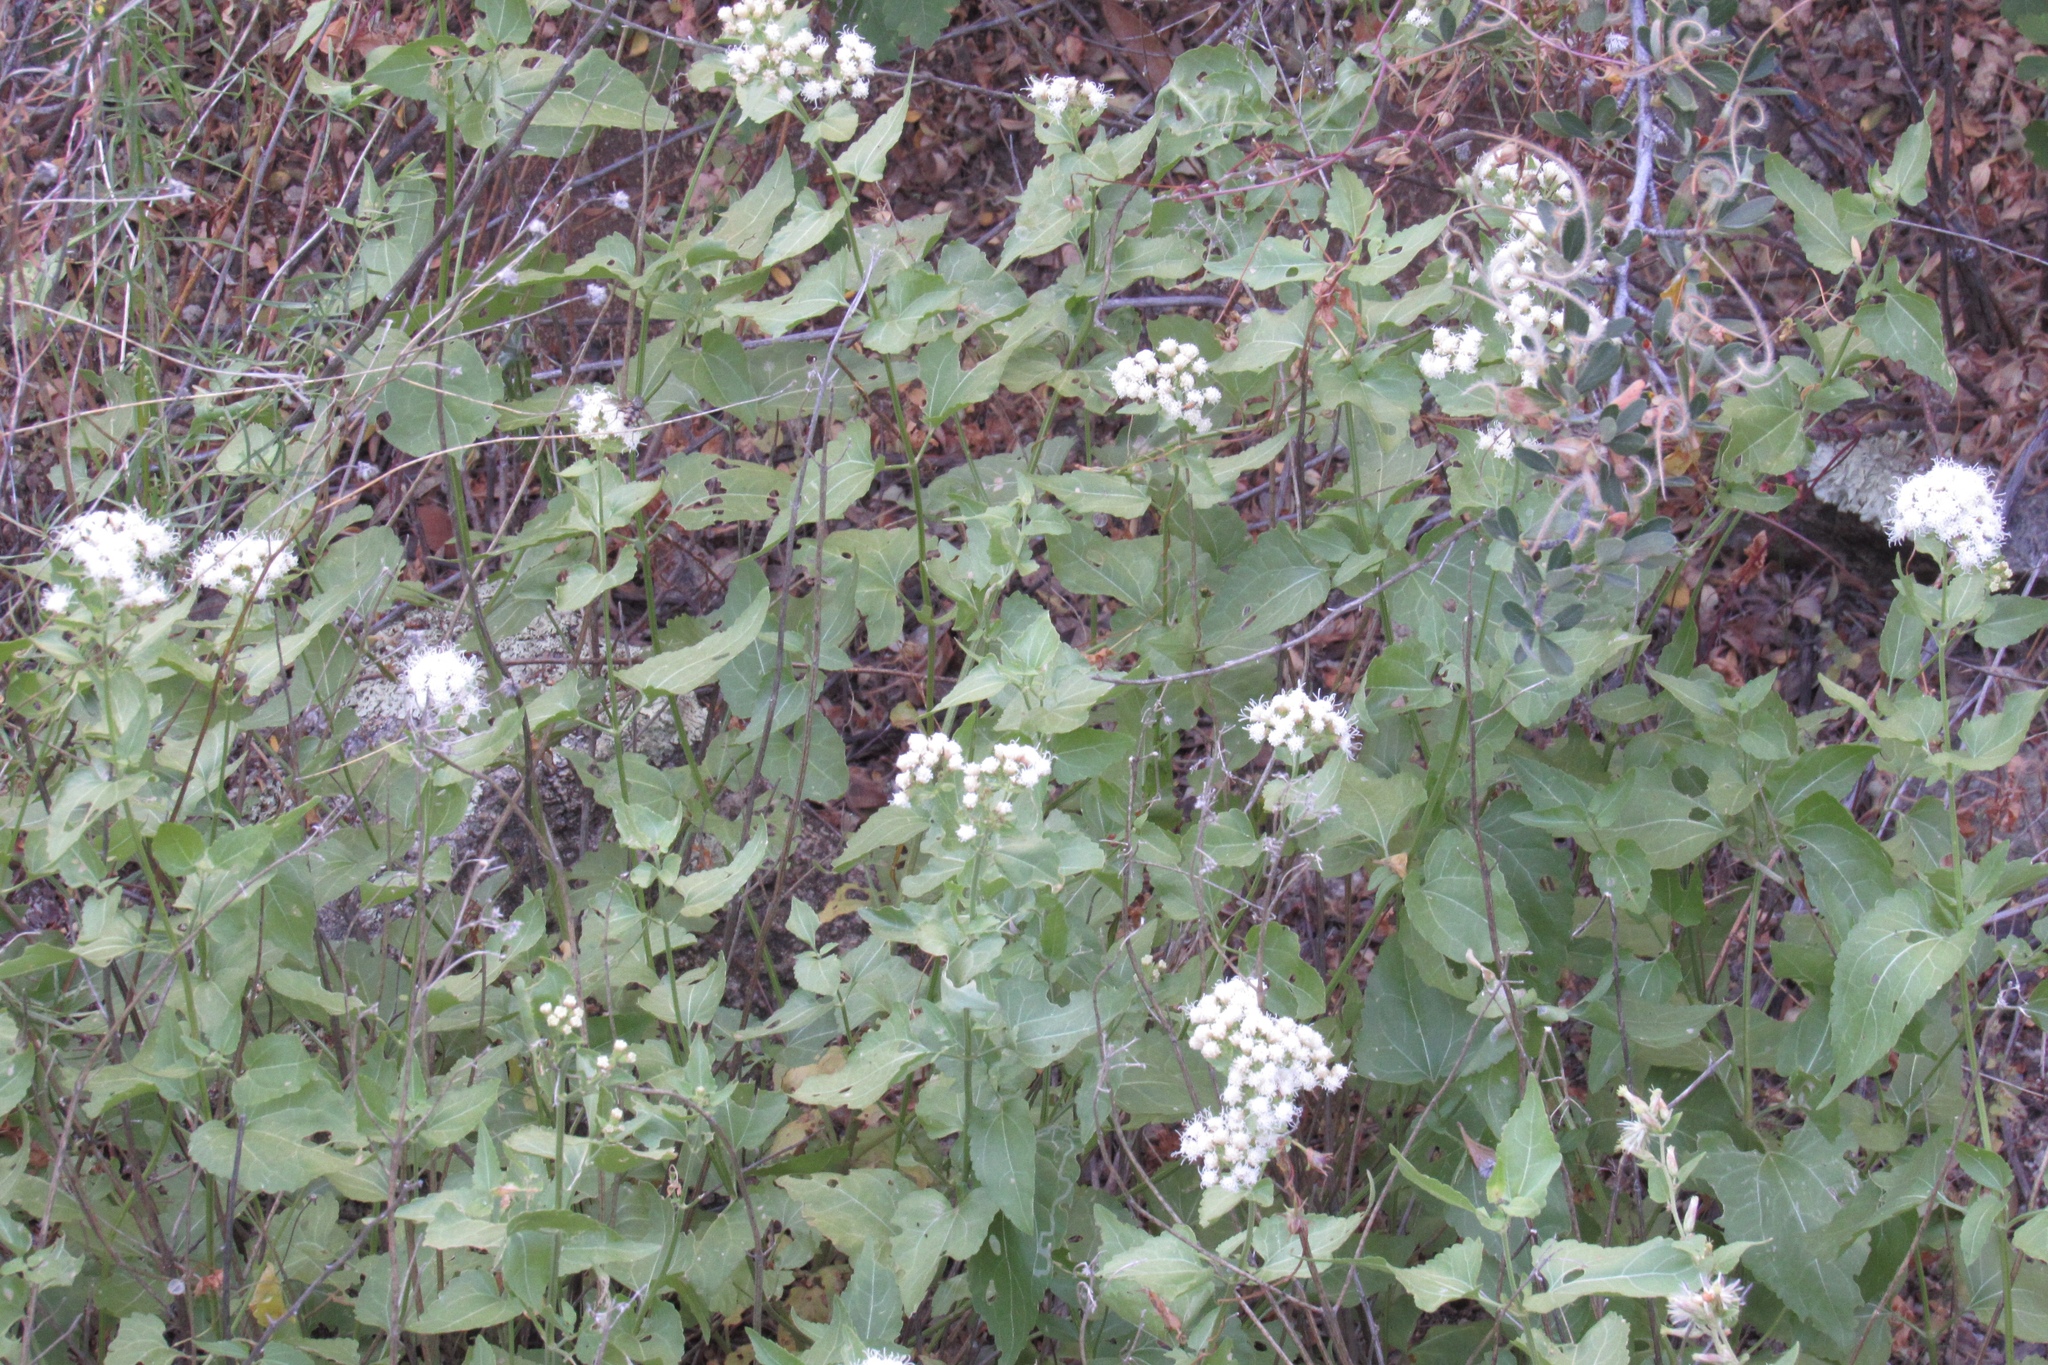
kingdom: Plantae
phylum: Tracheophyta
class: Magnoliopsida
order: Asterales
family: Asteraceae
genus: Ageratina
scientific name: Ageratina herbacea
